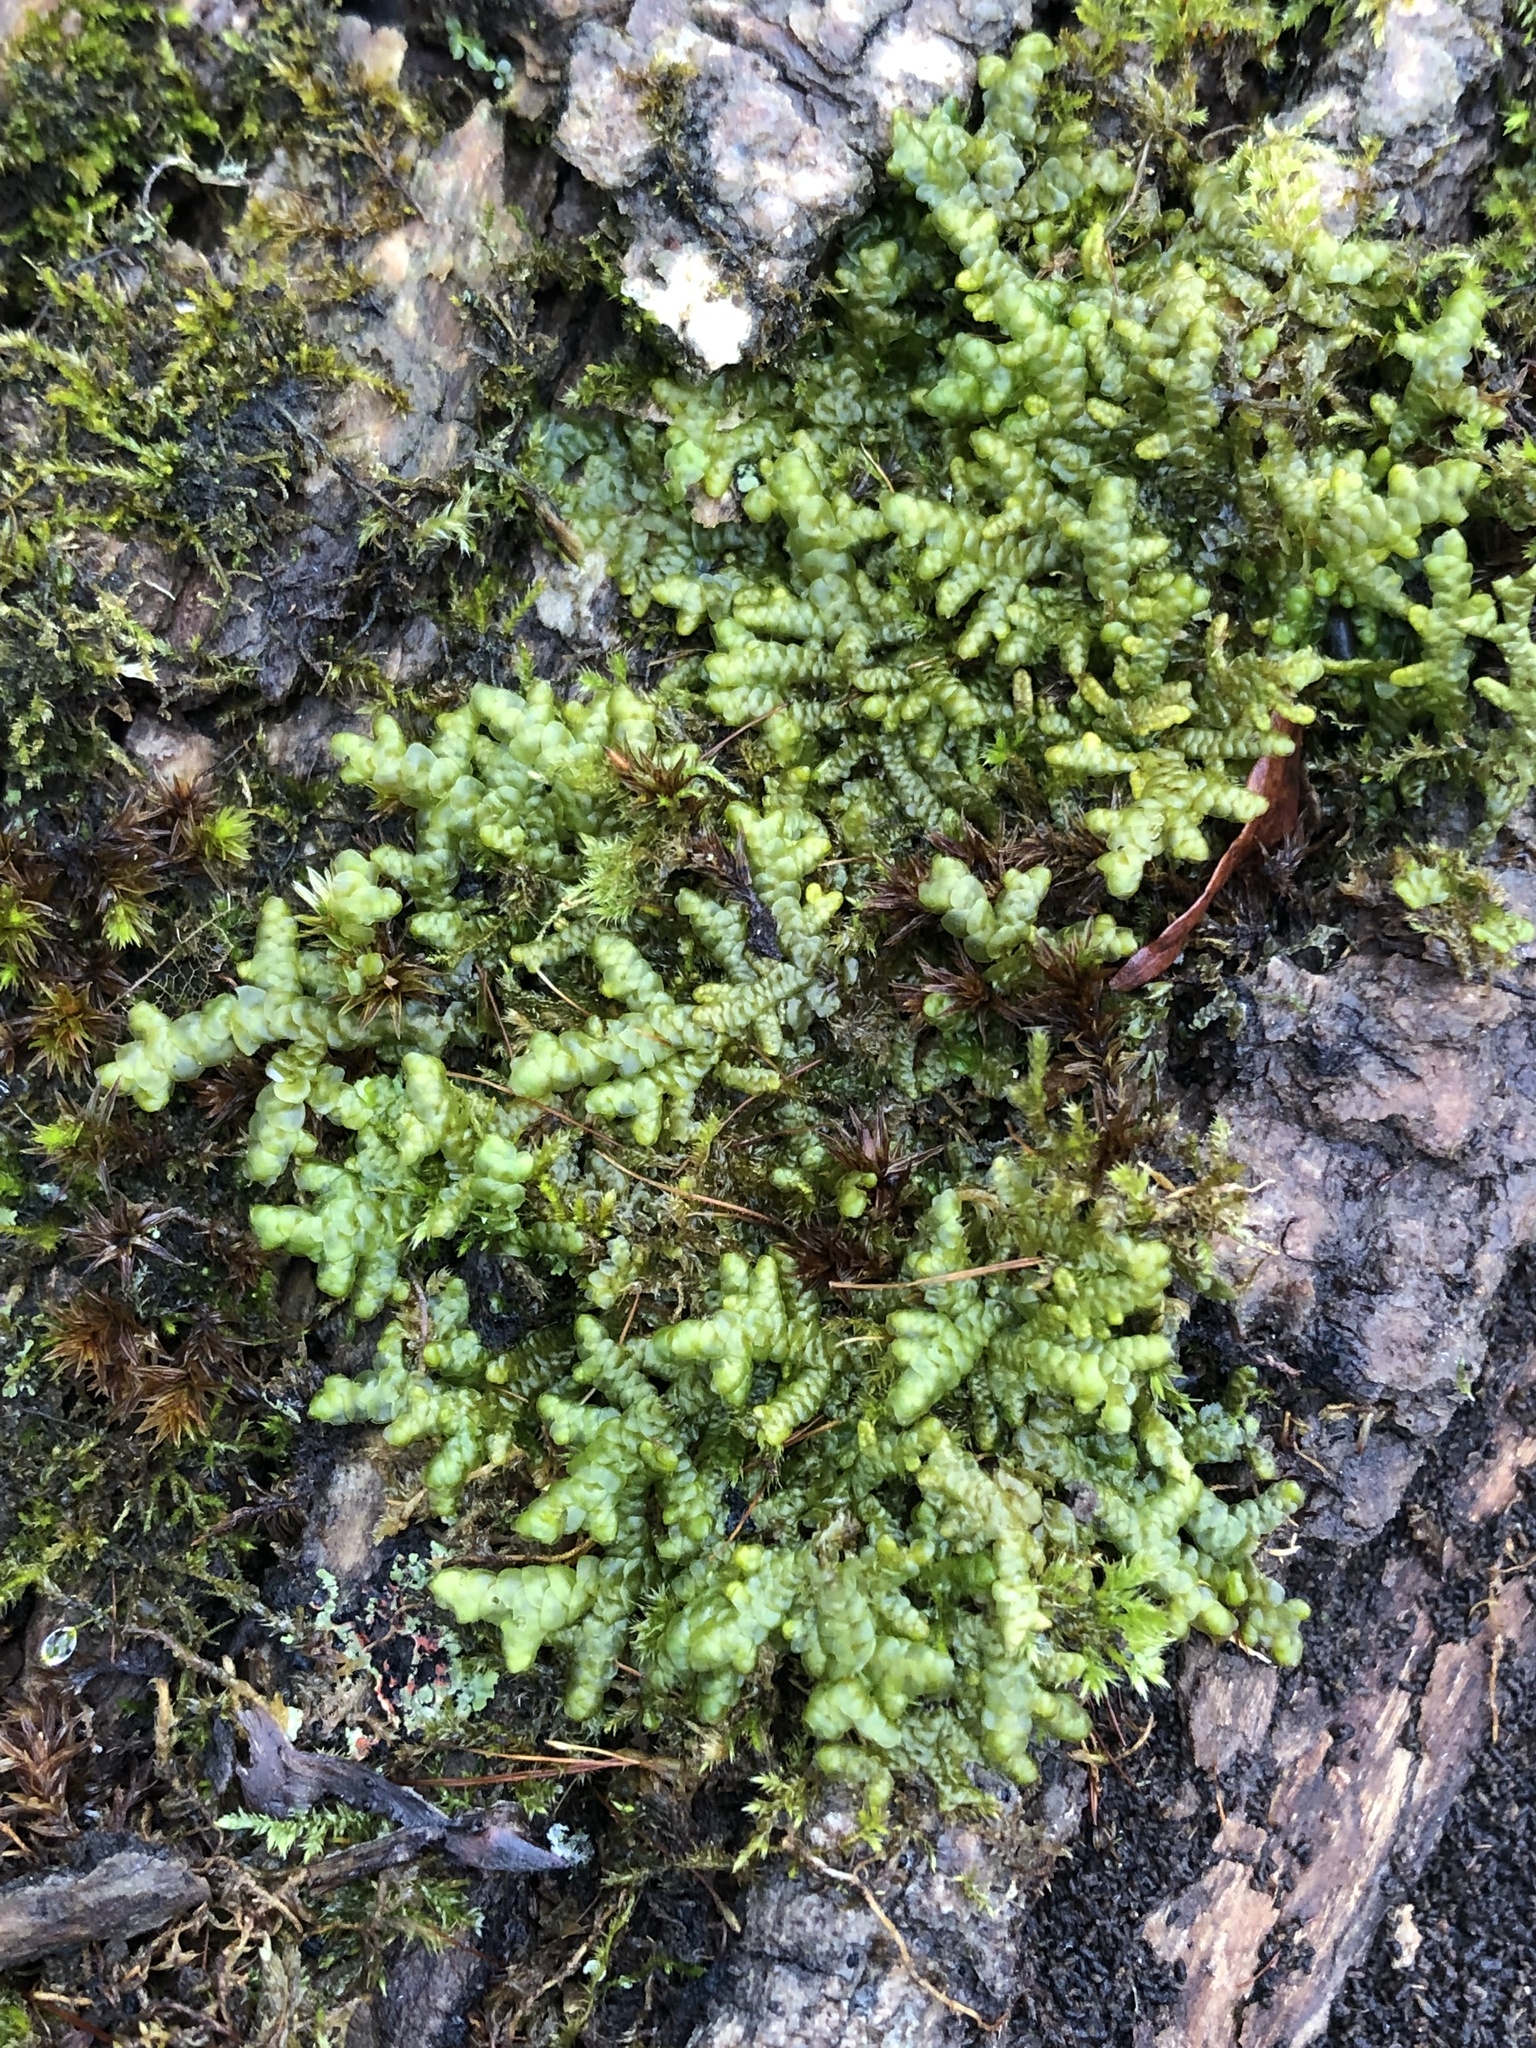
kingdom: Plantae
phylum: Marchantiophyta
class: Jungermanniopsida
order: Porellales
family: Porellaceae
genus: Porella
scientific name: Porella platyphylla
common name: Wall scalewort
